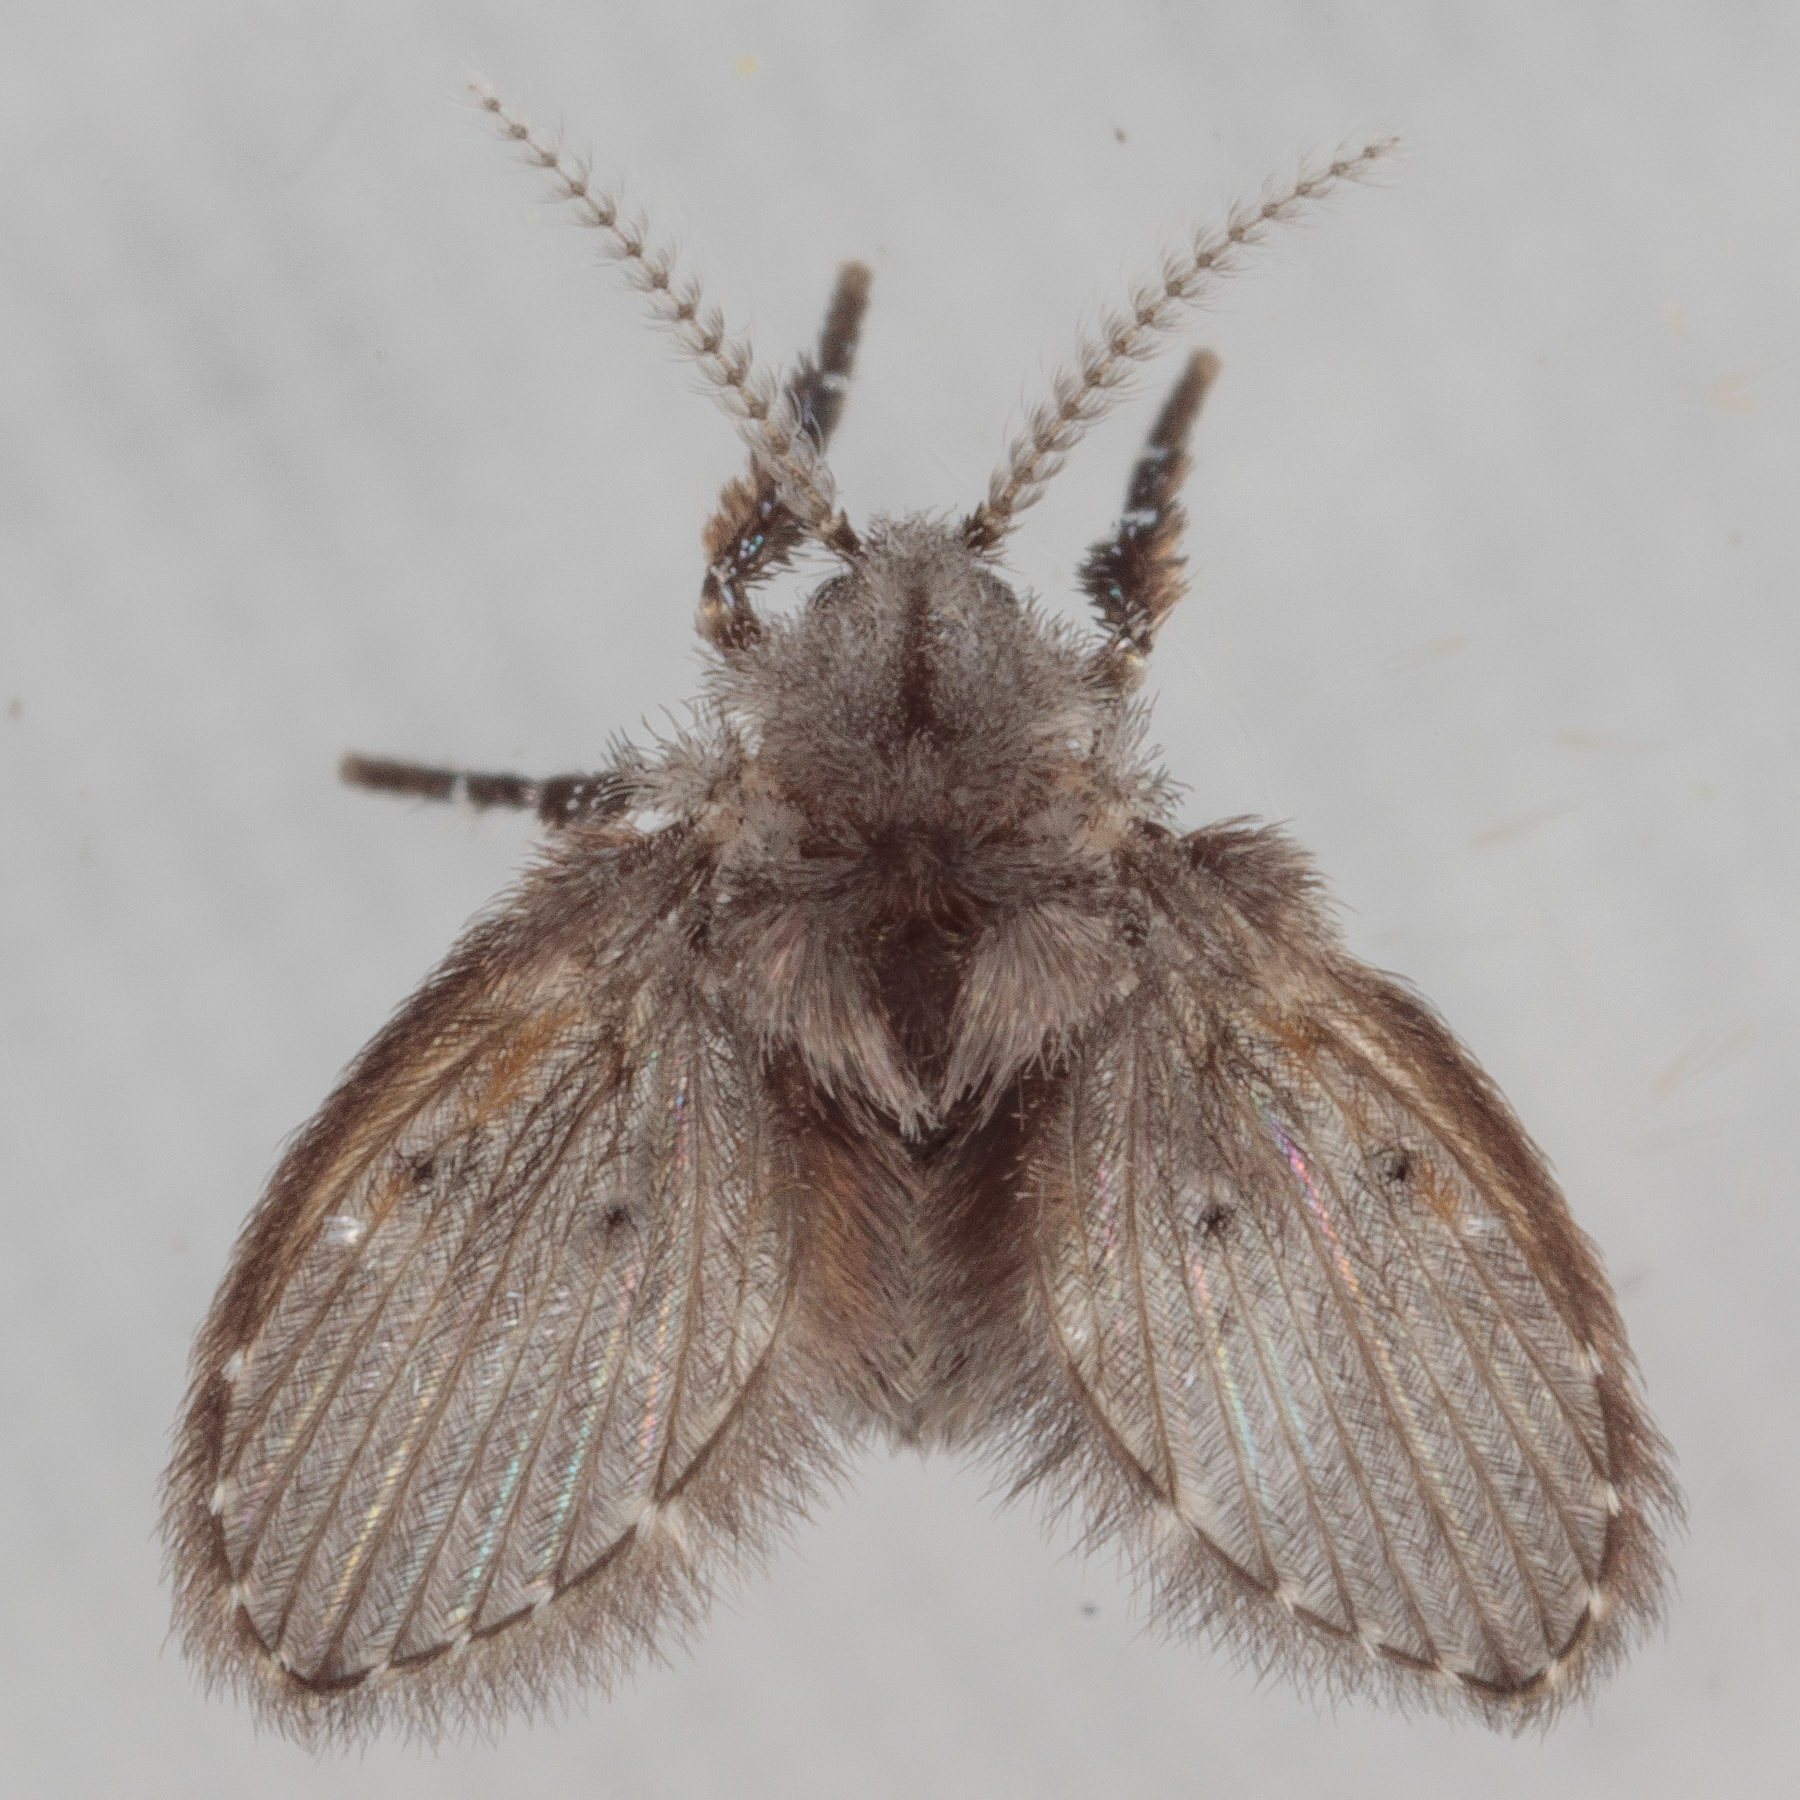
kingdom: Animalia
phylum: Arthropoda
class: Insecta
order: Diptera
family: Psychodidae
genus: Clogmia
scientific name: Clogmia albipunctatus
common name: White-spotted moth fly
